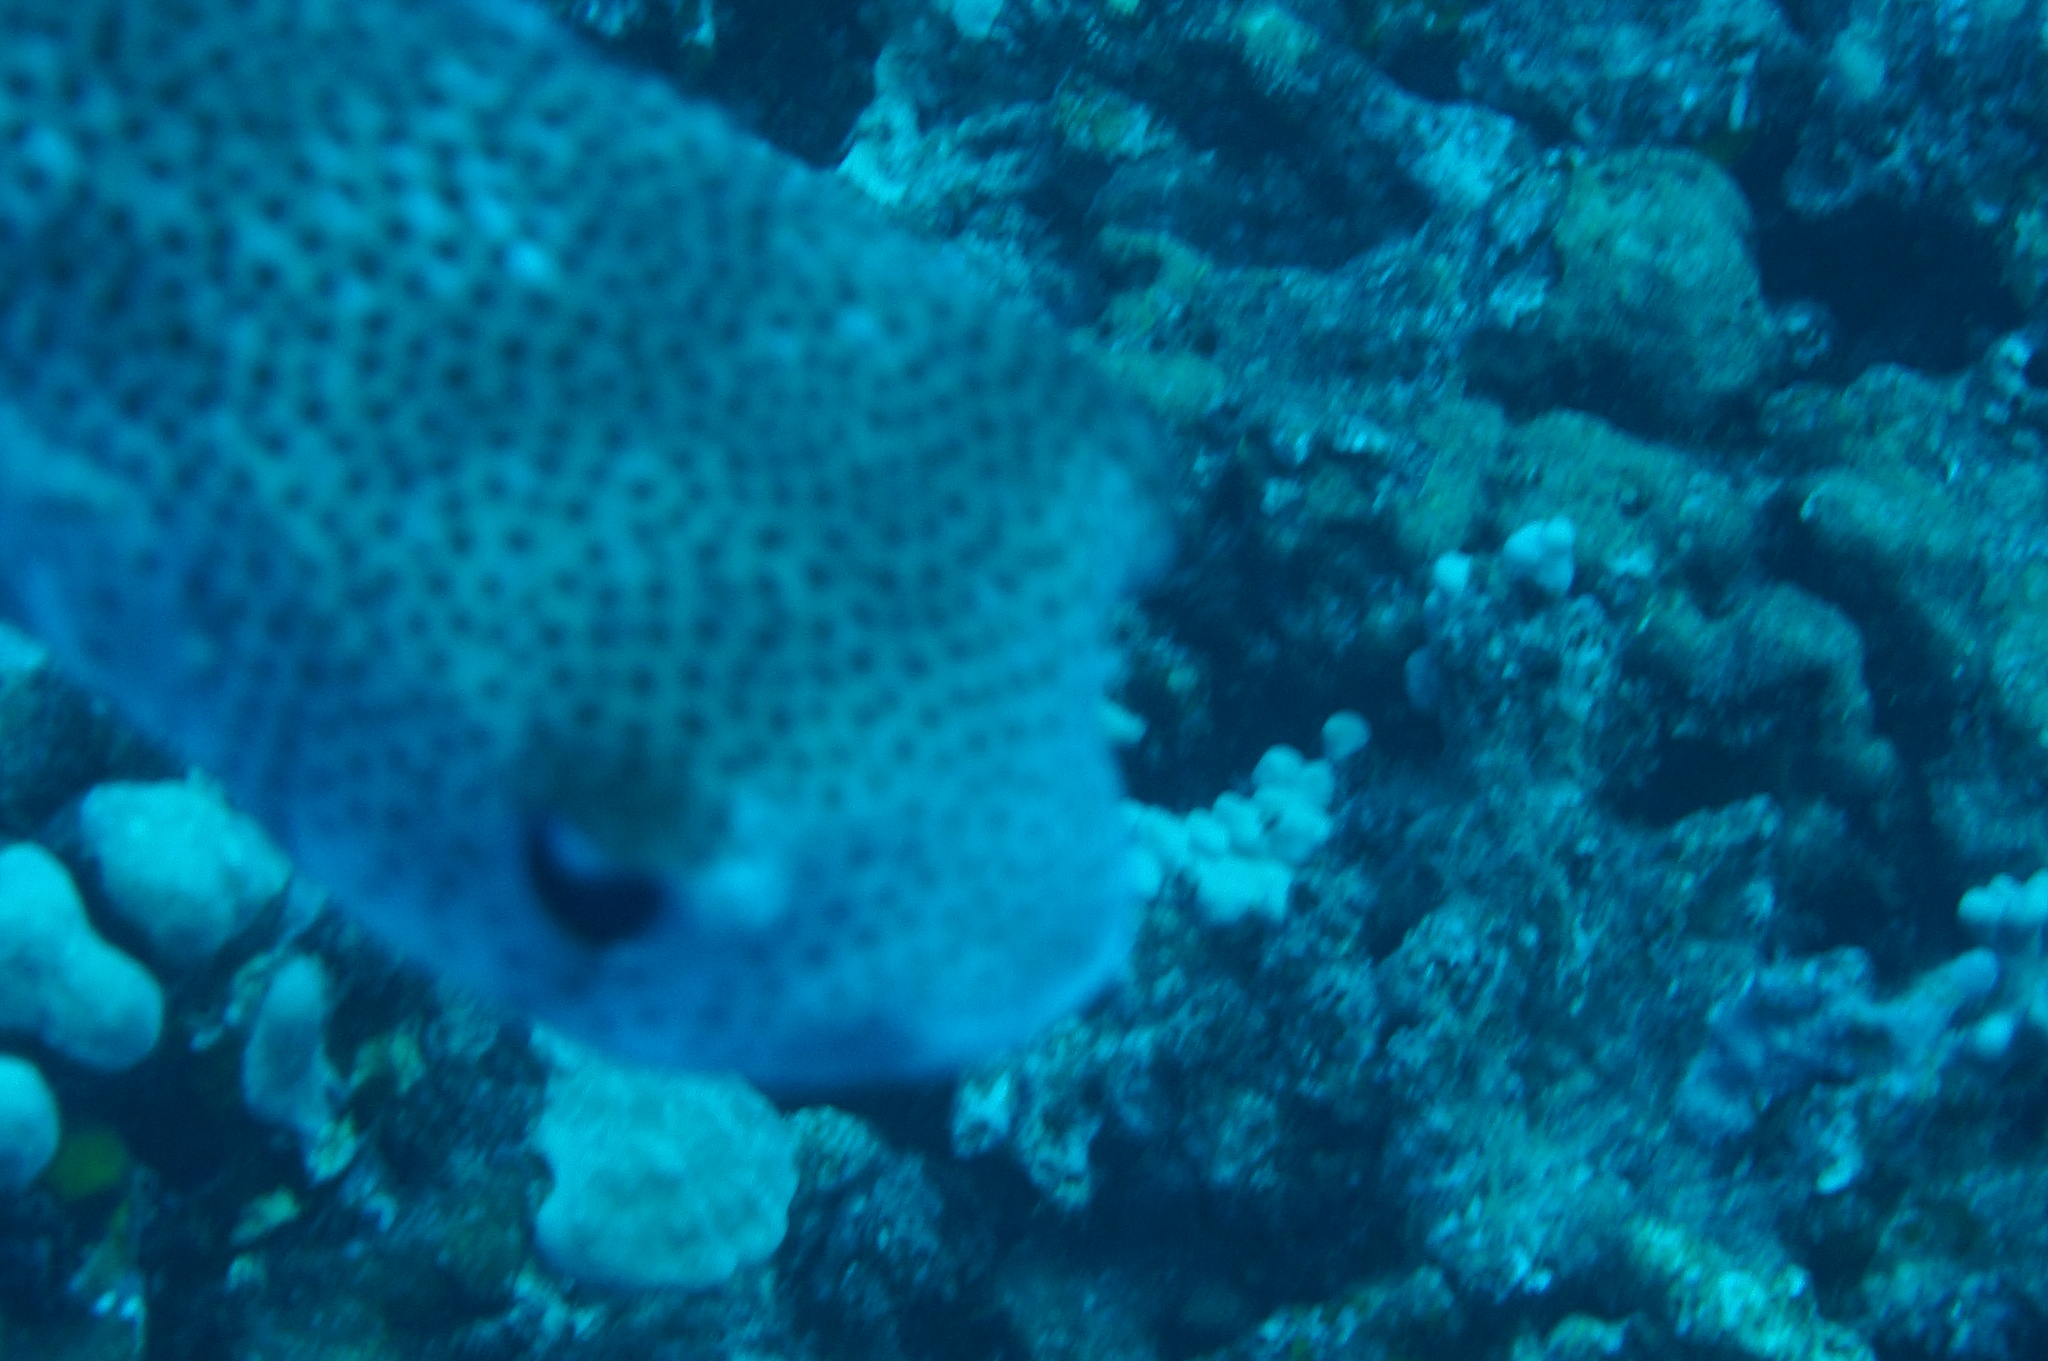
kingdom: Animalia
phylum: Chordata
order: Tetraodontiformes
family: Diodontidae
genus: Diodon
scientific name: Diodon hystrix
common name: Giant porcupinefish
